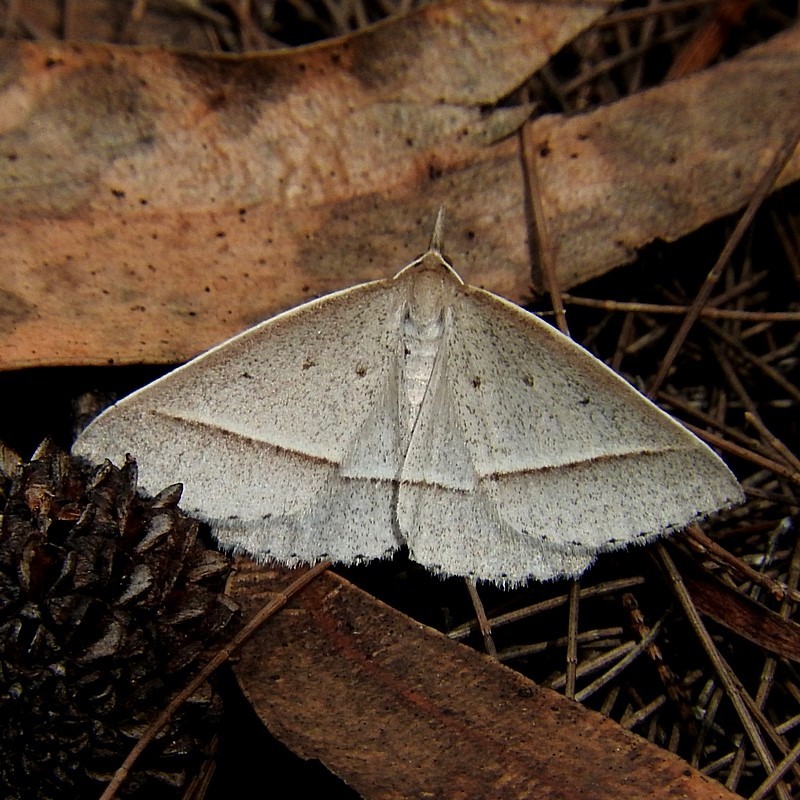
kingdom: Animalia
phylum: Arthropoda
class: Insecta
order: Lepidoptera
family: Geometridae
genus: Epidesmia
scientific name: Epidesmia hypenaria
